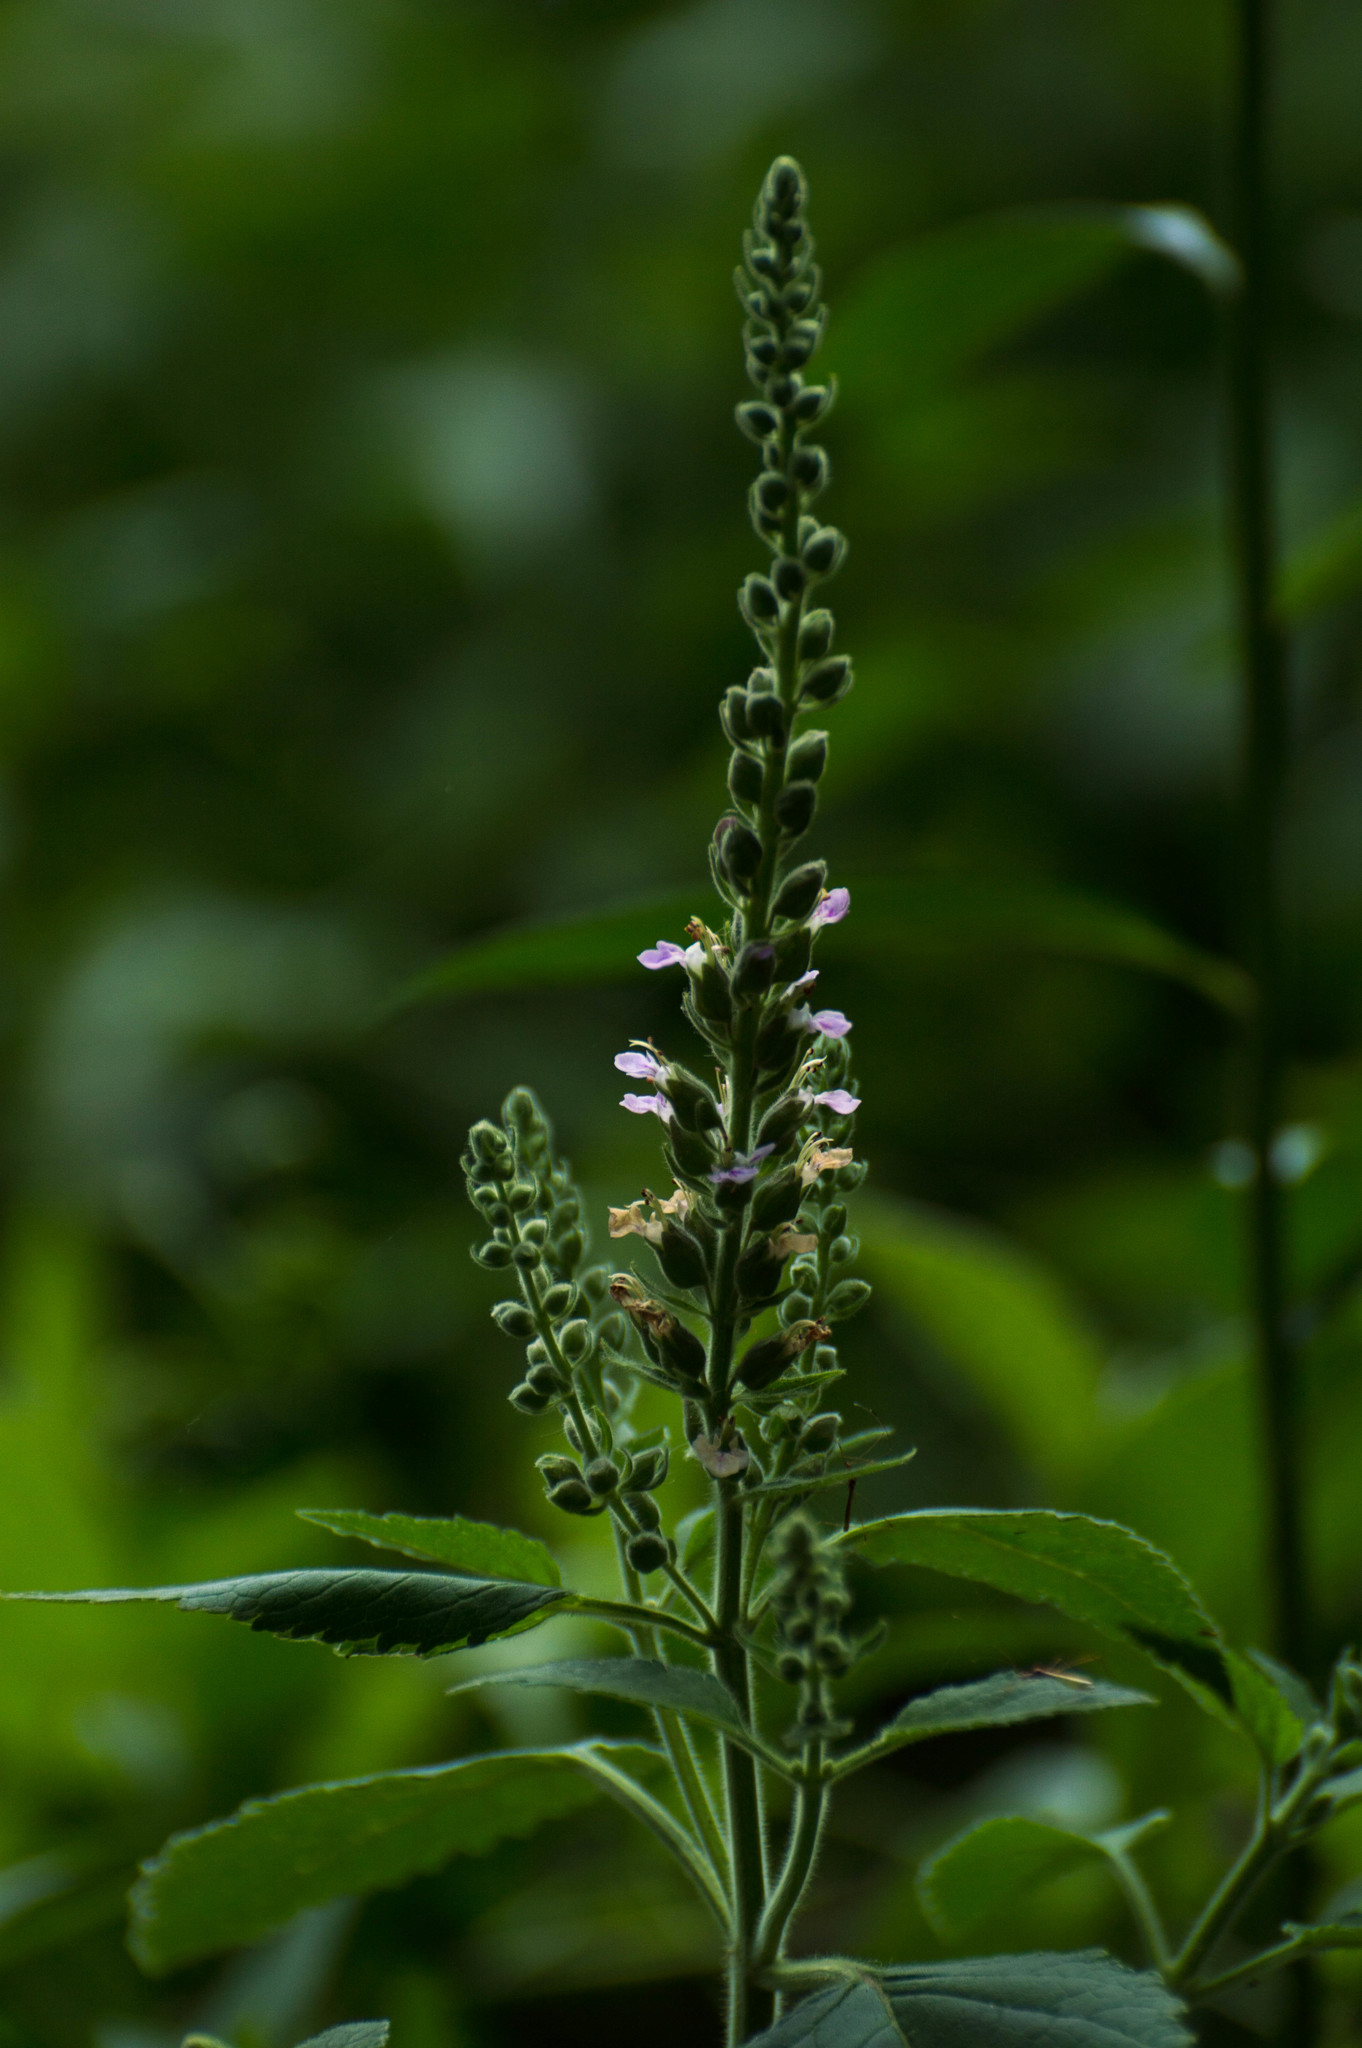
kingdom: Plantae
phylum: Tracheophyta
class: Magnoliopsida
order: Lamiales
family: Lamiaceae
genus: Teucrium
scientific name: Teucrium vesicarium
